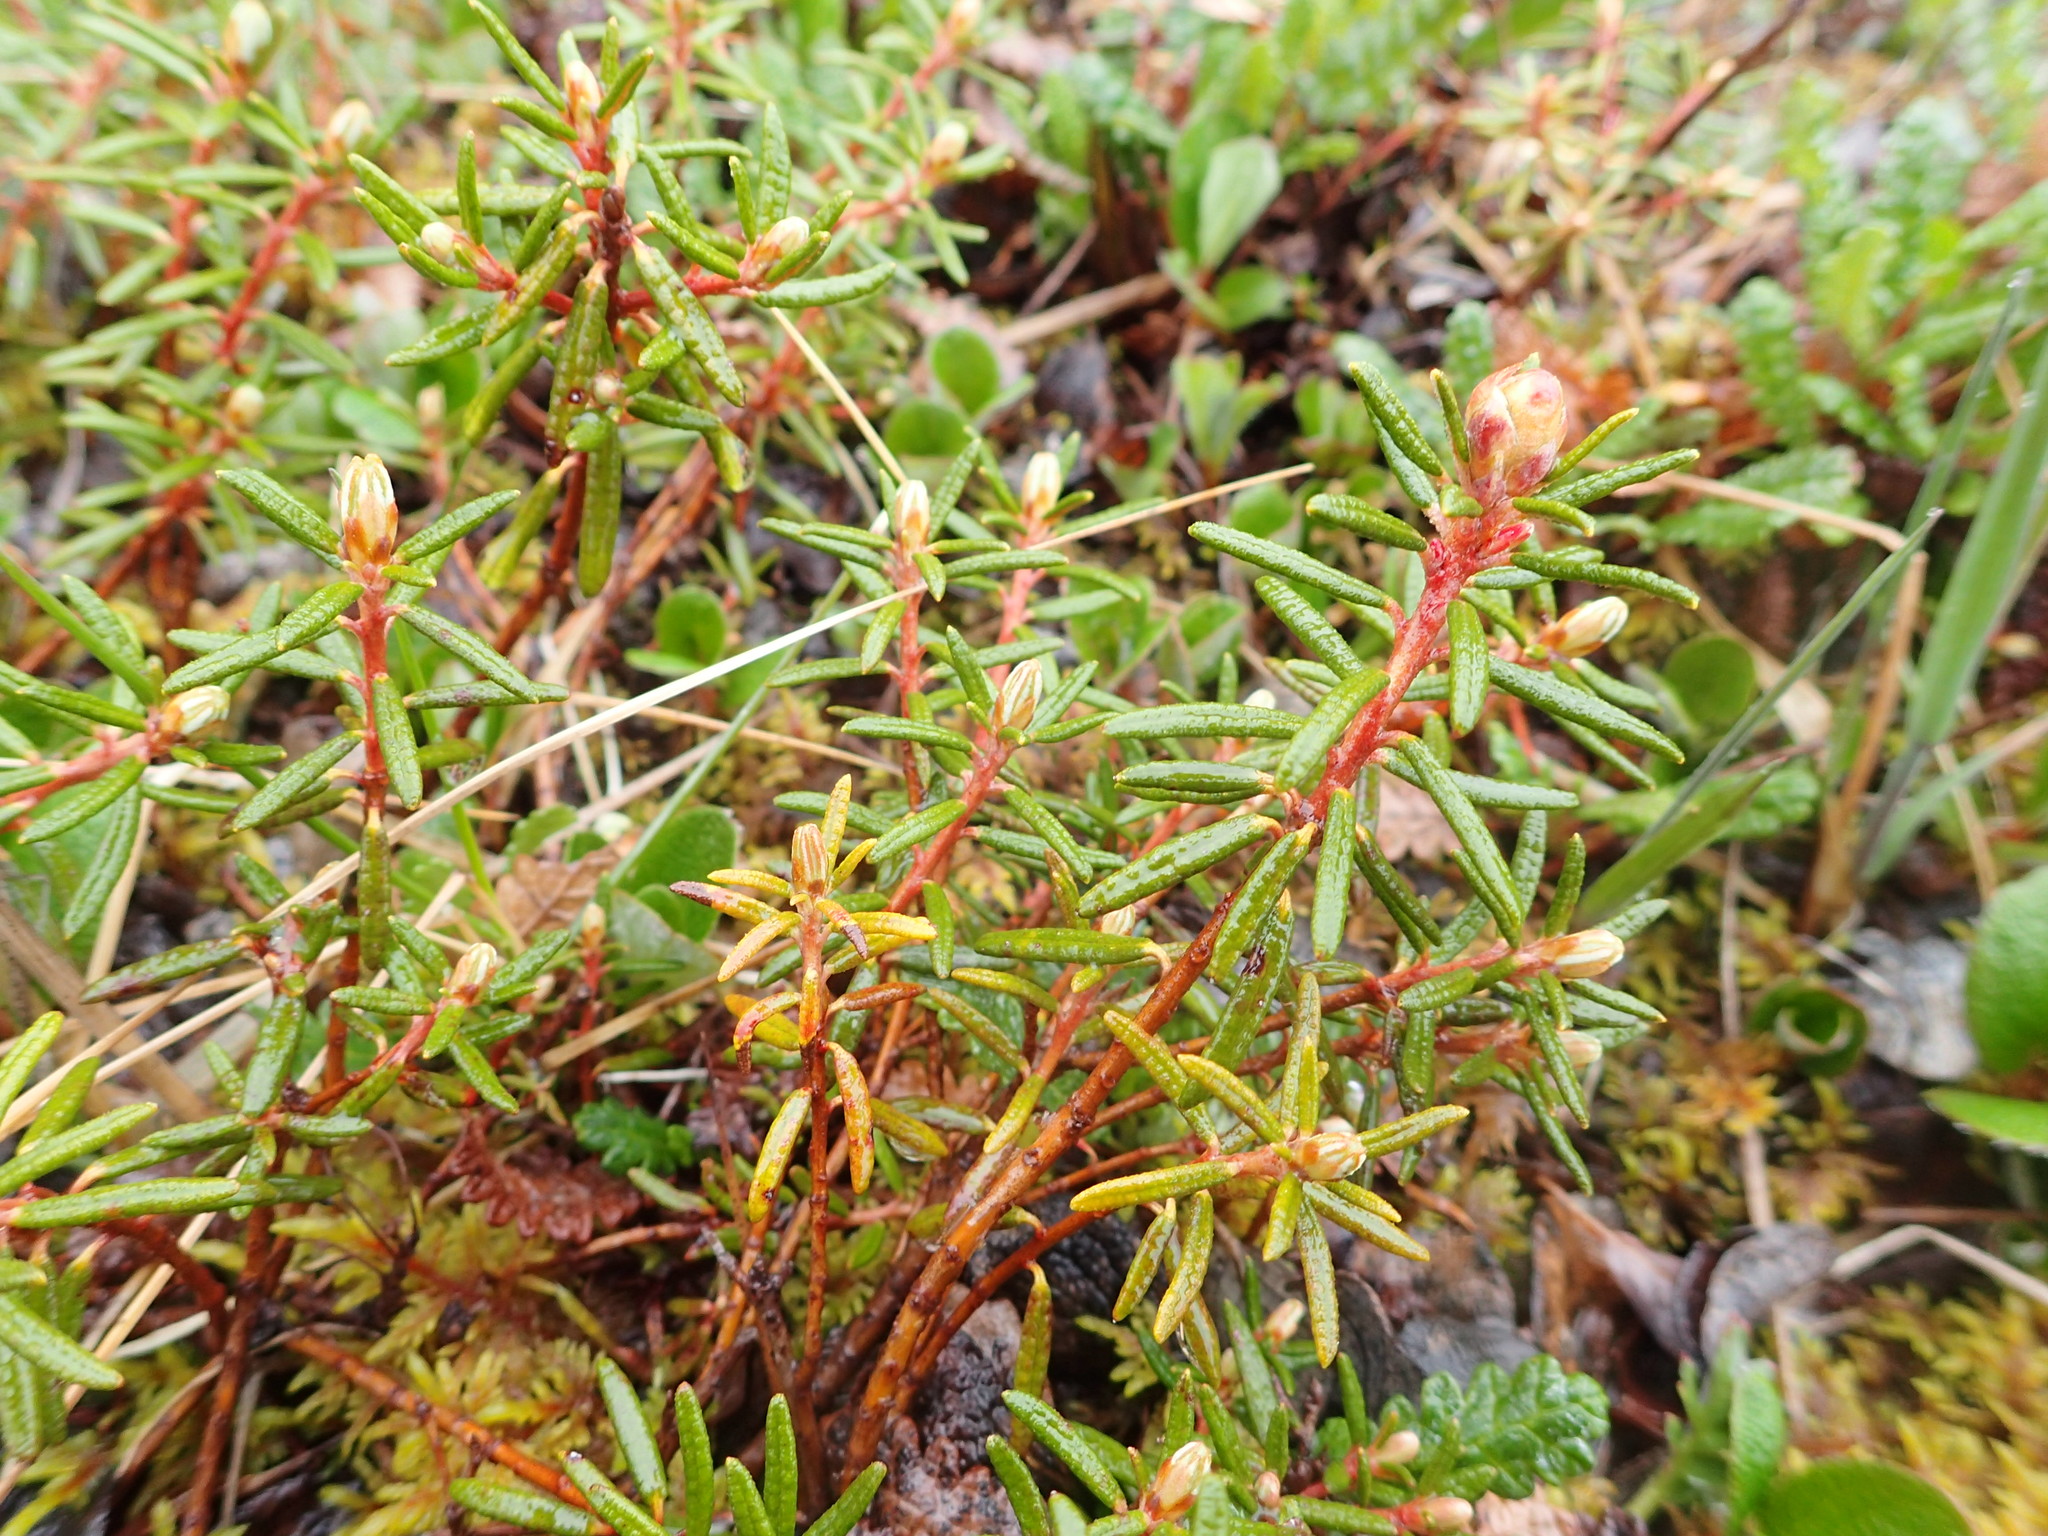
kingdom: Plantae
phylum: Tracheophyta
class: Magnoliopsida
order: Ericales
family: Ericaceae
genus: Rhododendron
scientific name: Rhododendron tomentosum
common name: Marsh labrador tea
